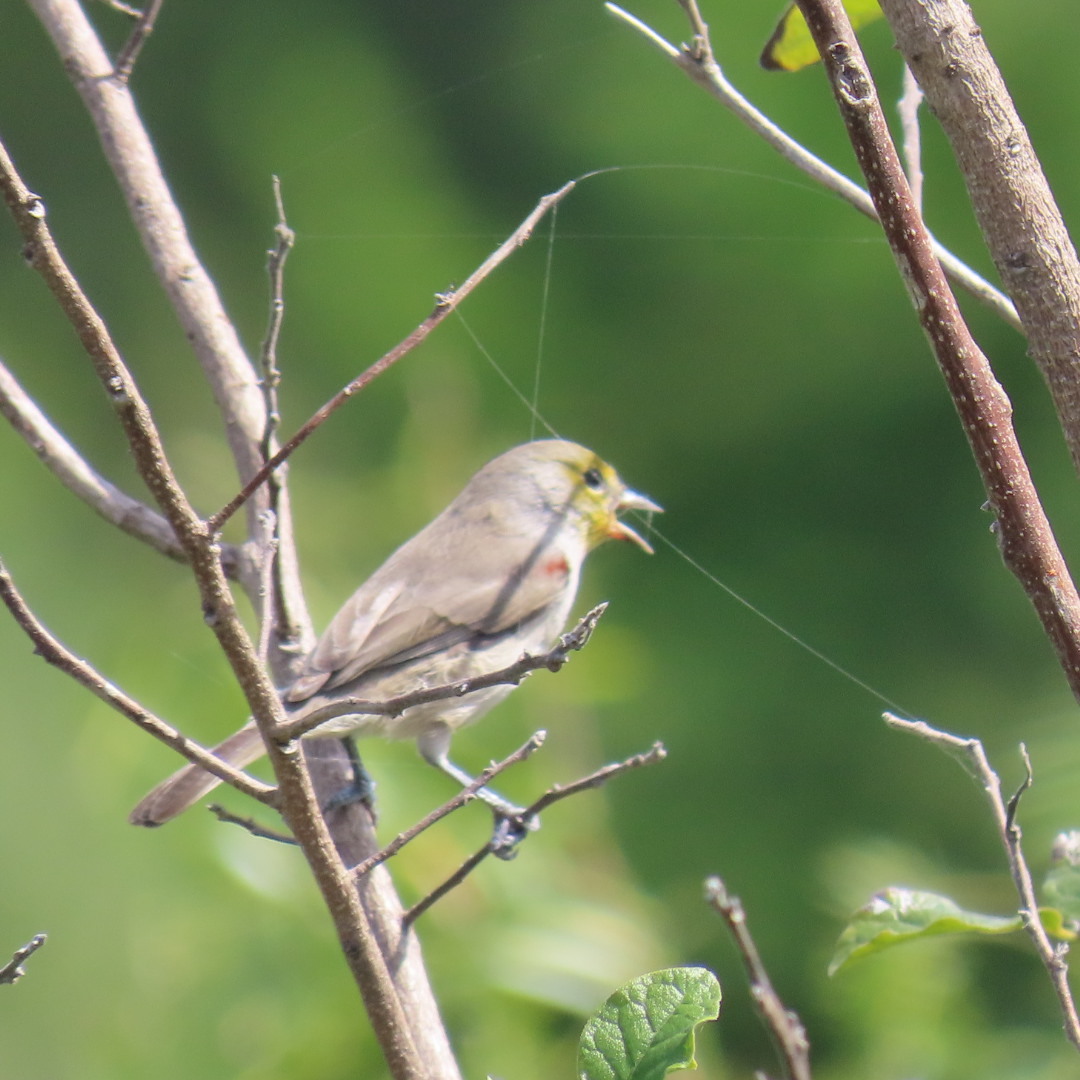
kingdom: Animalia
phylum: Chordata
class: Aves
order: Passeriformes
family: Remizidae
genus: Auriparus
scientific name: Auriparus flaviceps
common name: Verdin
